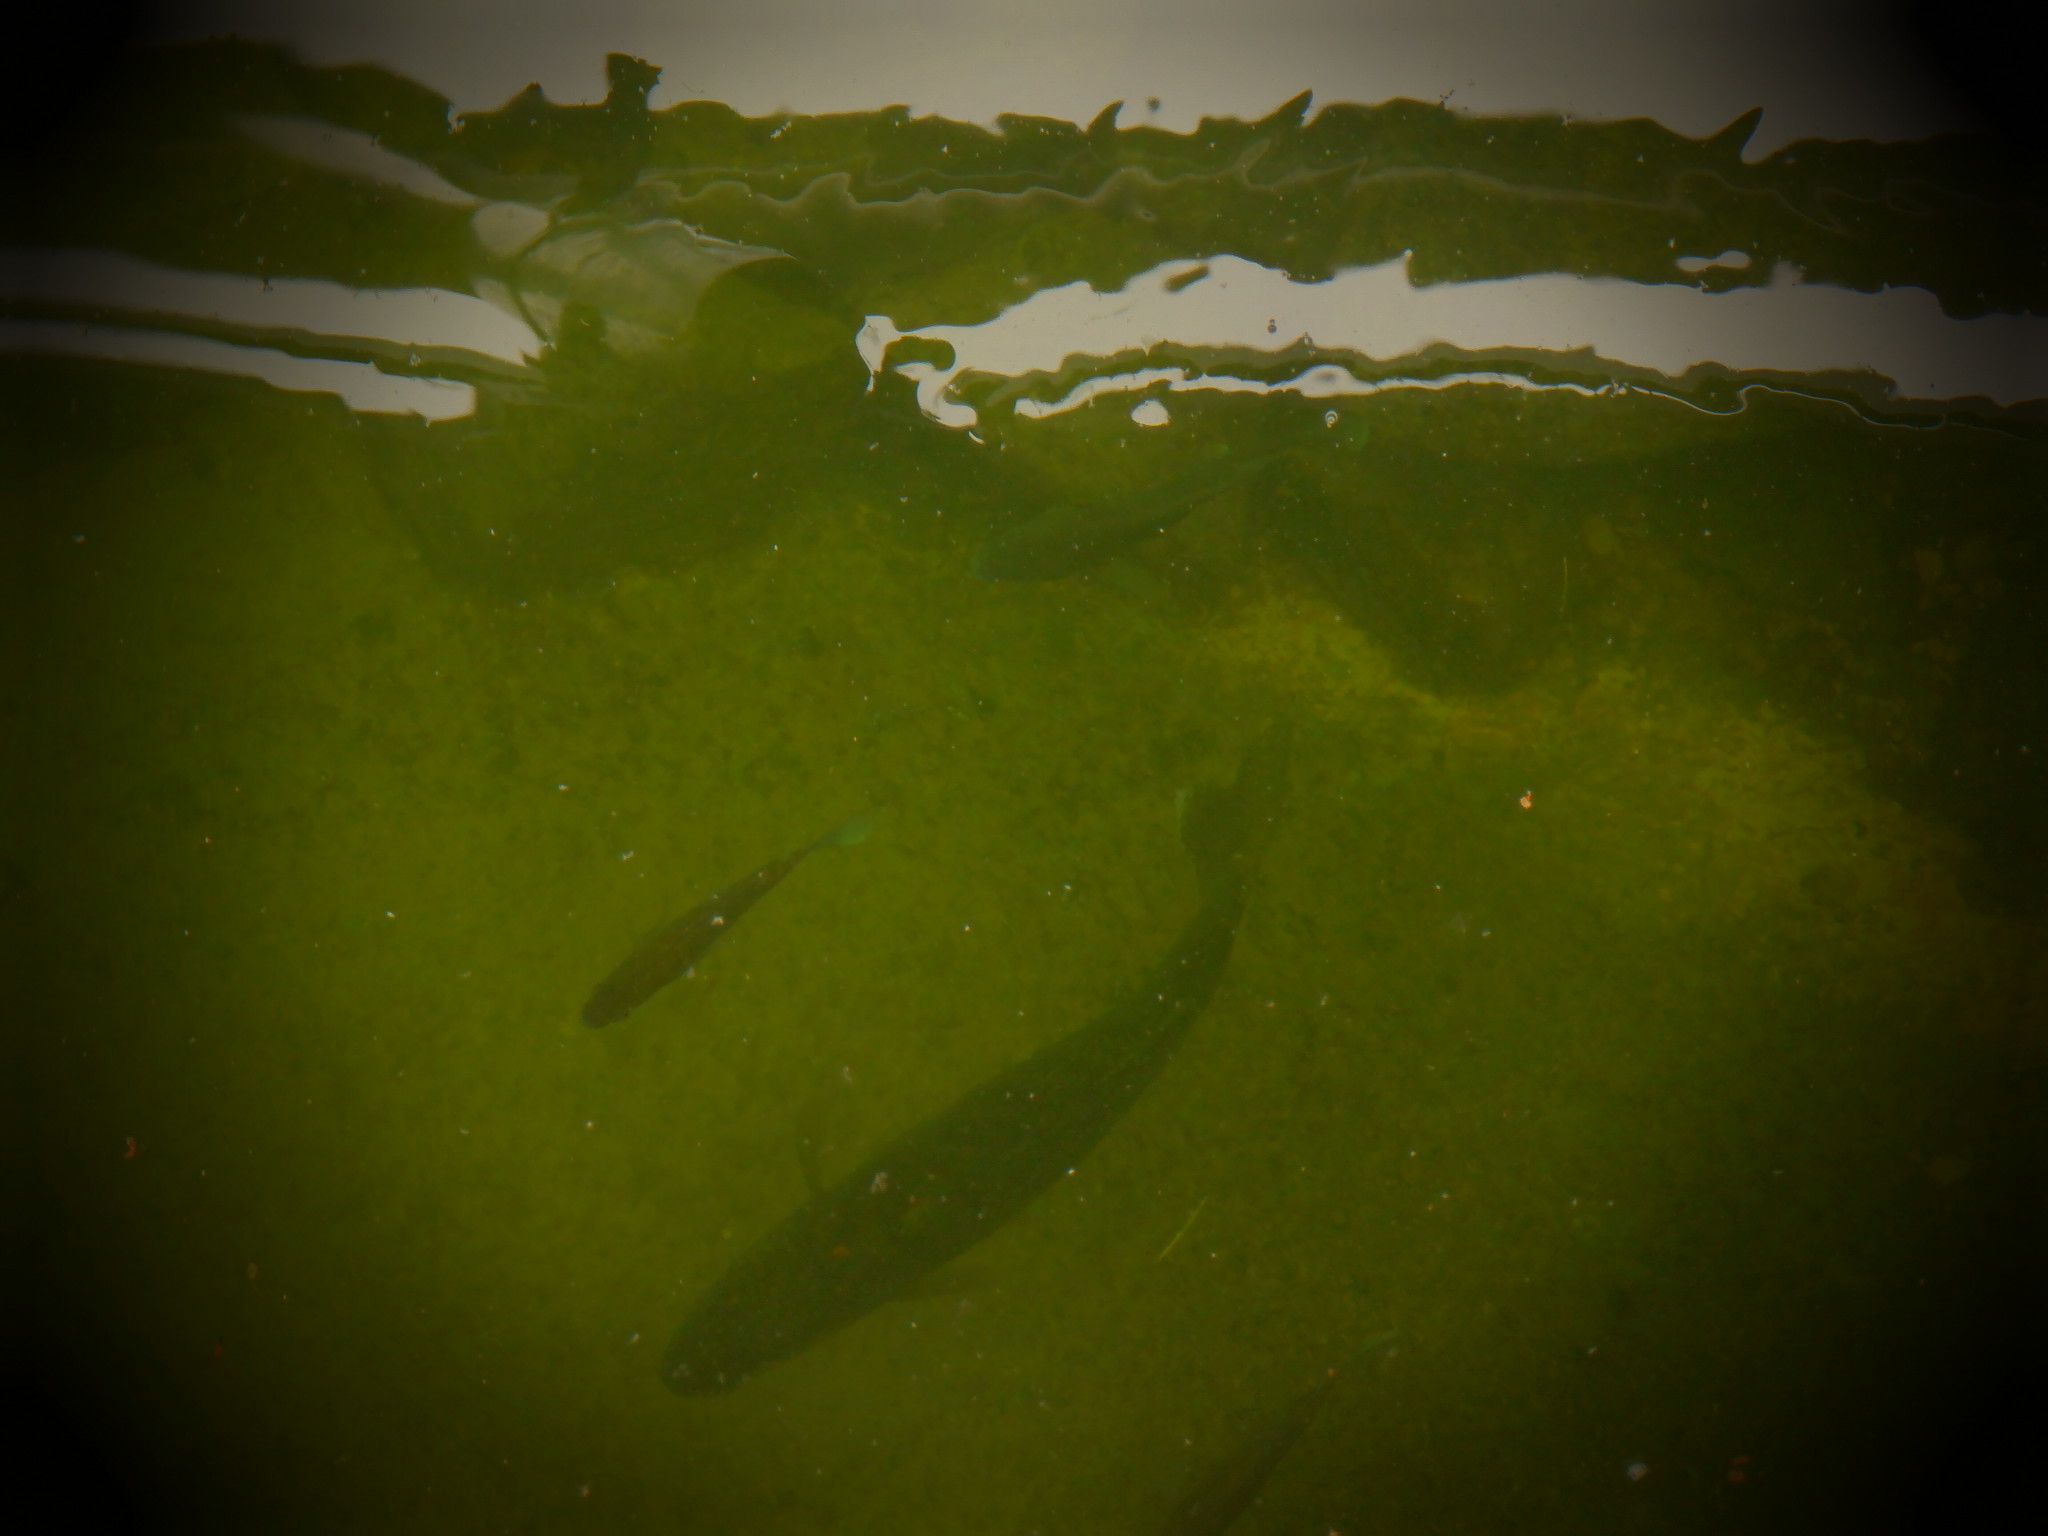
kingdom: Animalia
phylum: Chordata
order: Perciformes
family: Percidae
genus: Sander
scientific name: Sander vitreus
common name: Walleye
